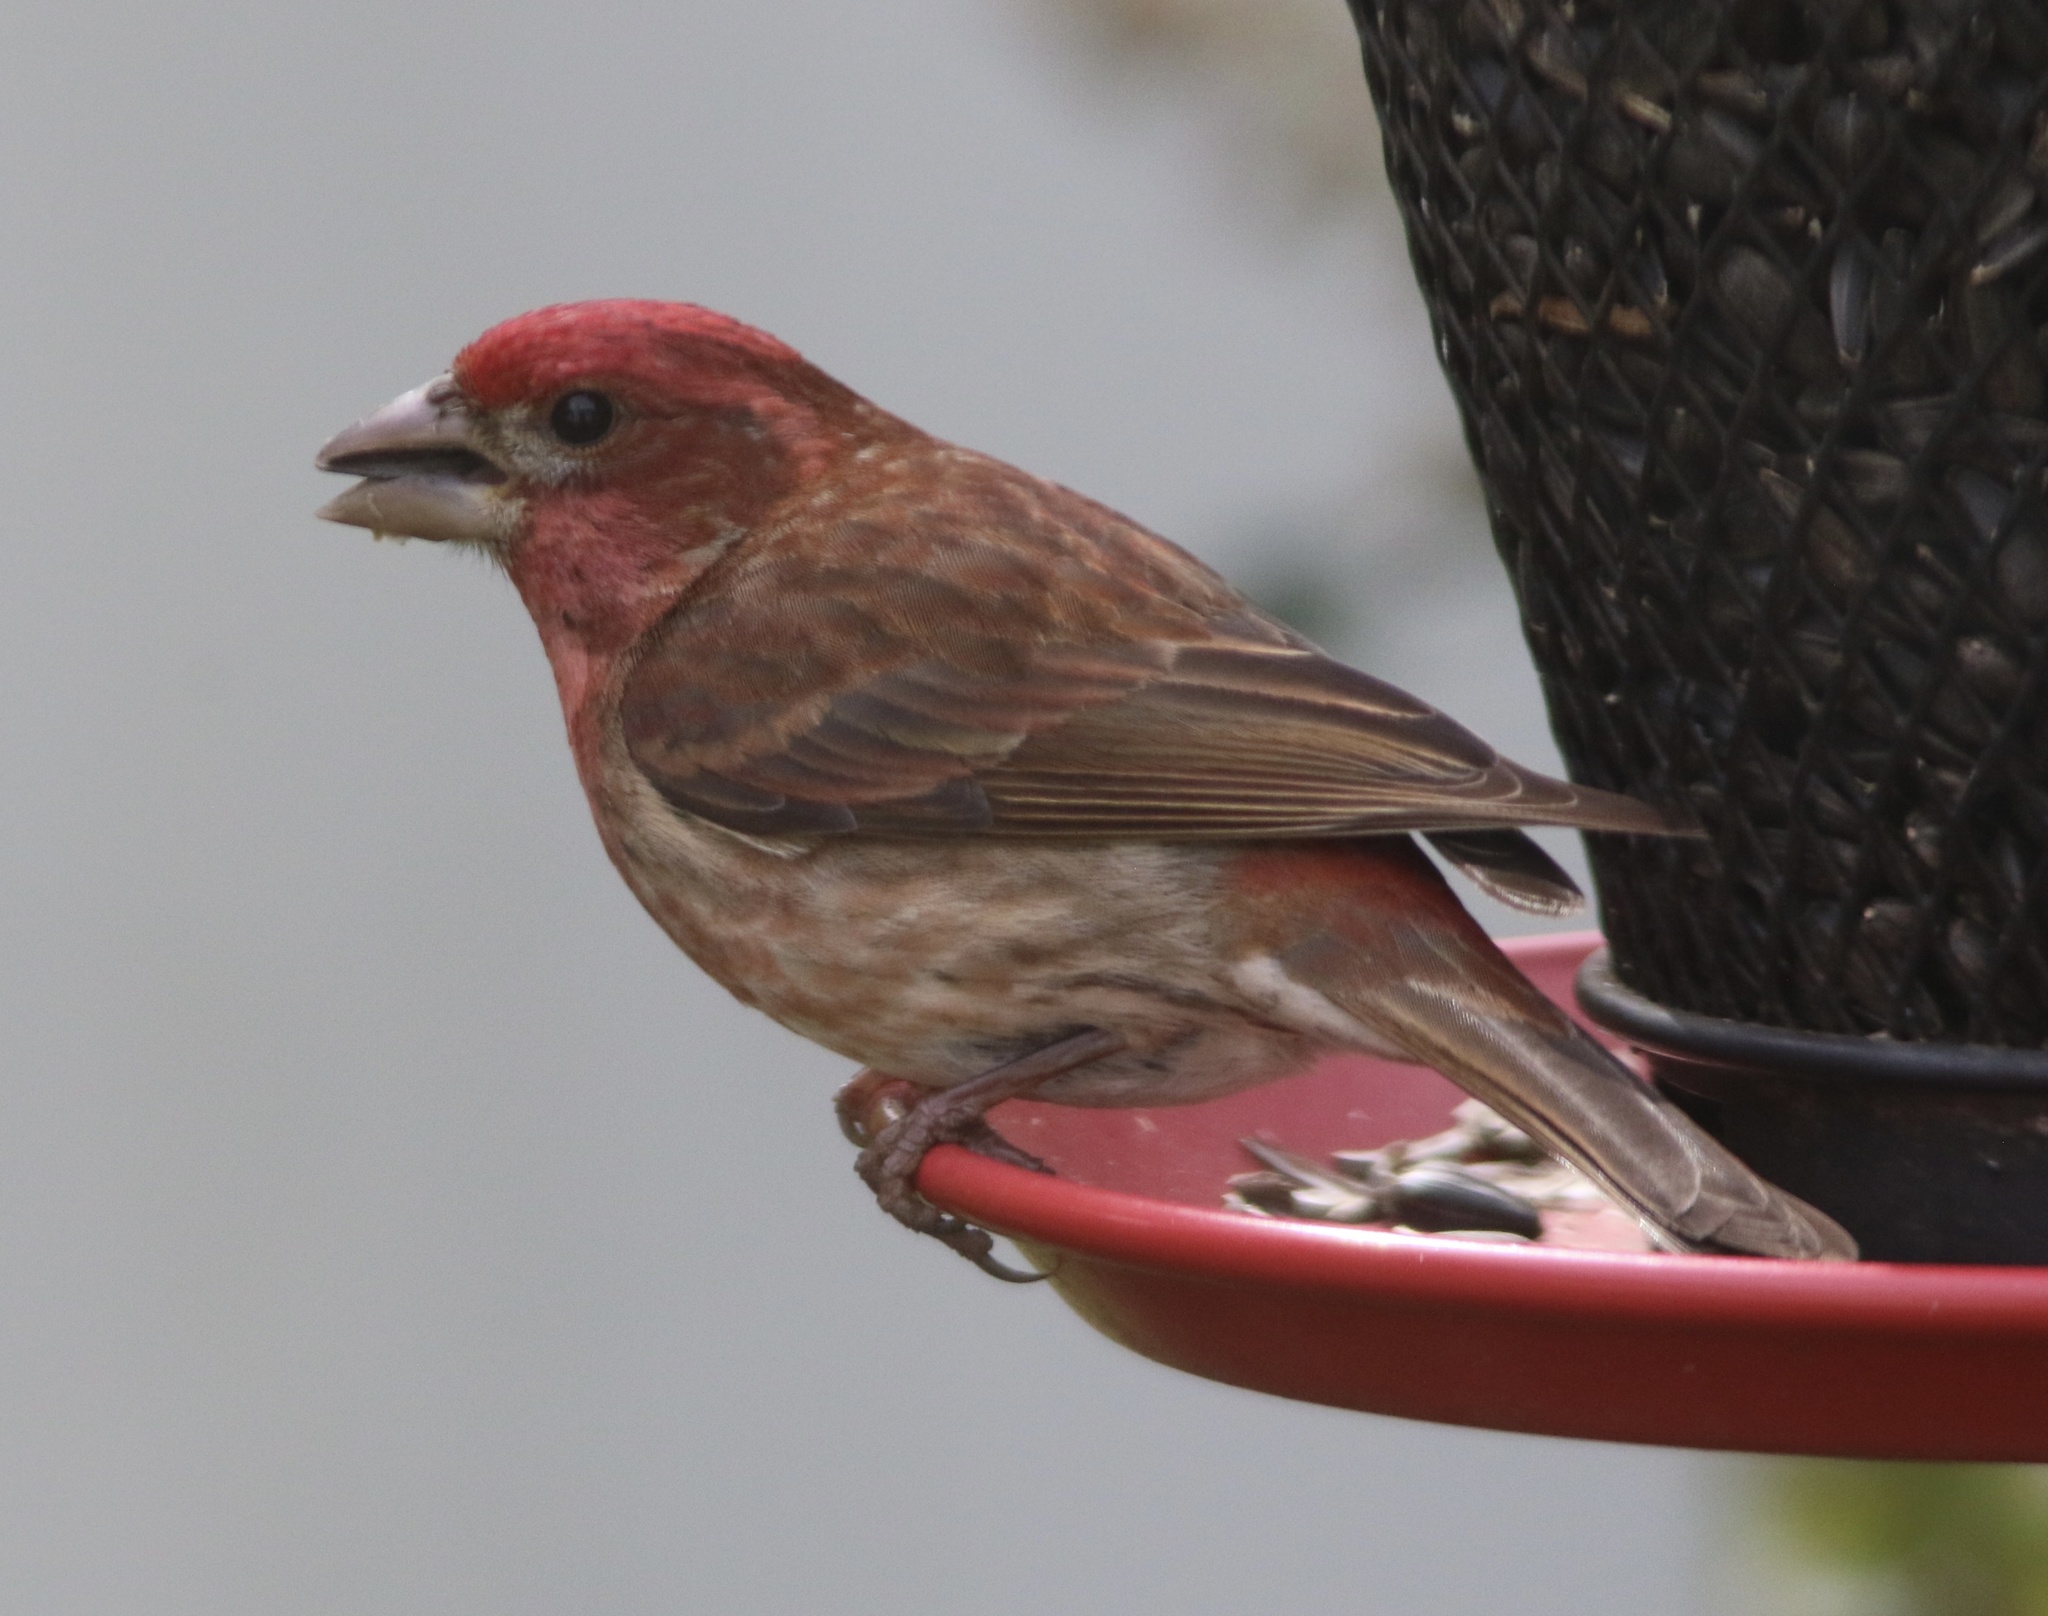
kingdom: Animalia
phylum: Chordata
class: Aves
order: Passeriformes
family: Fringillidae
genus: Haemorhous
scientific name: Haemorhous purpureus
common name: Purple finch
